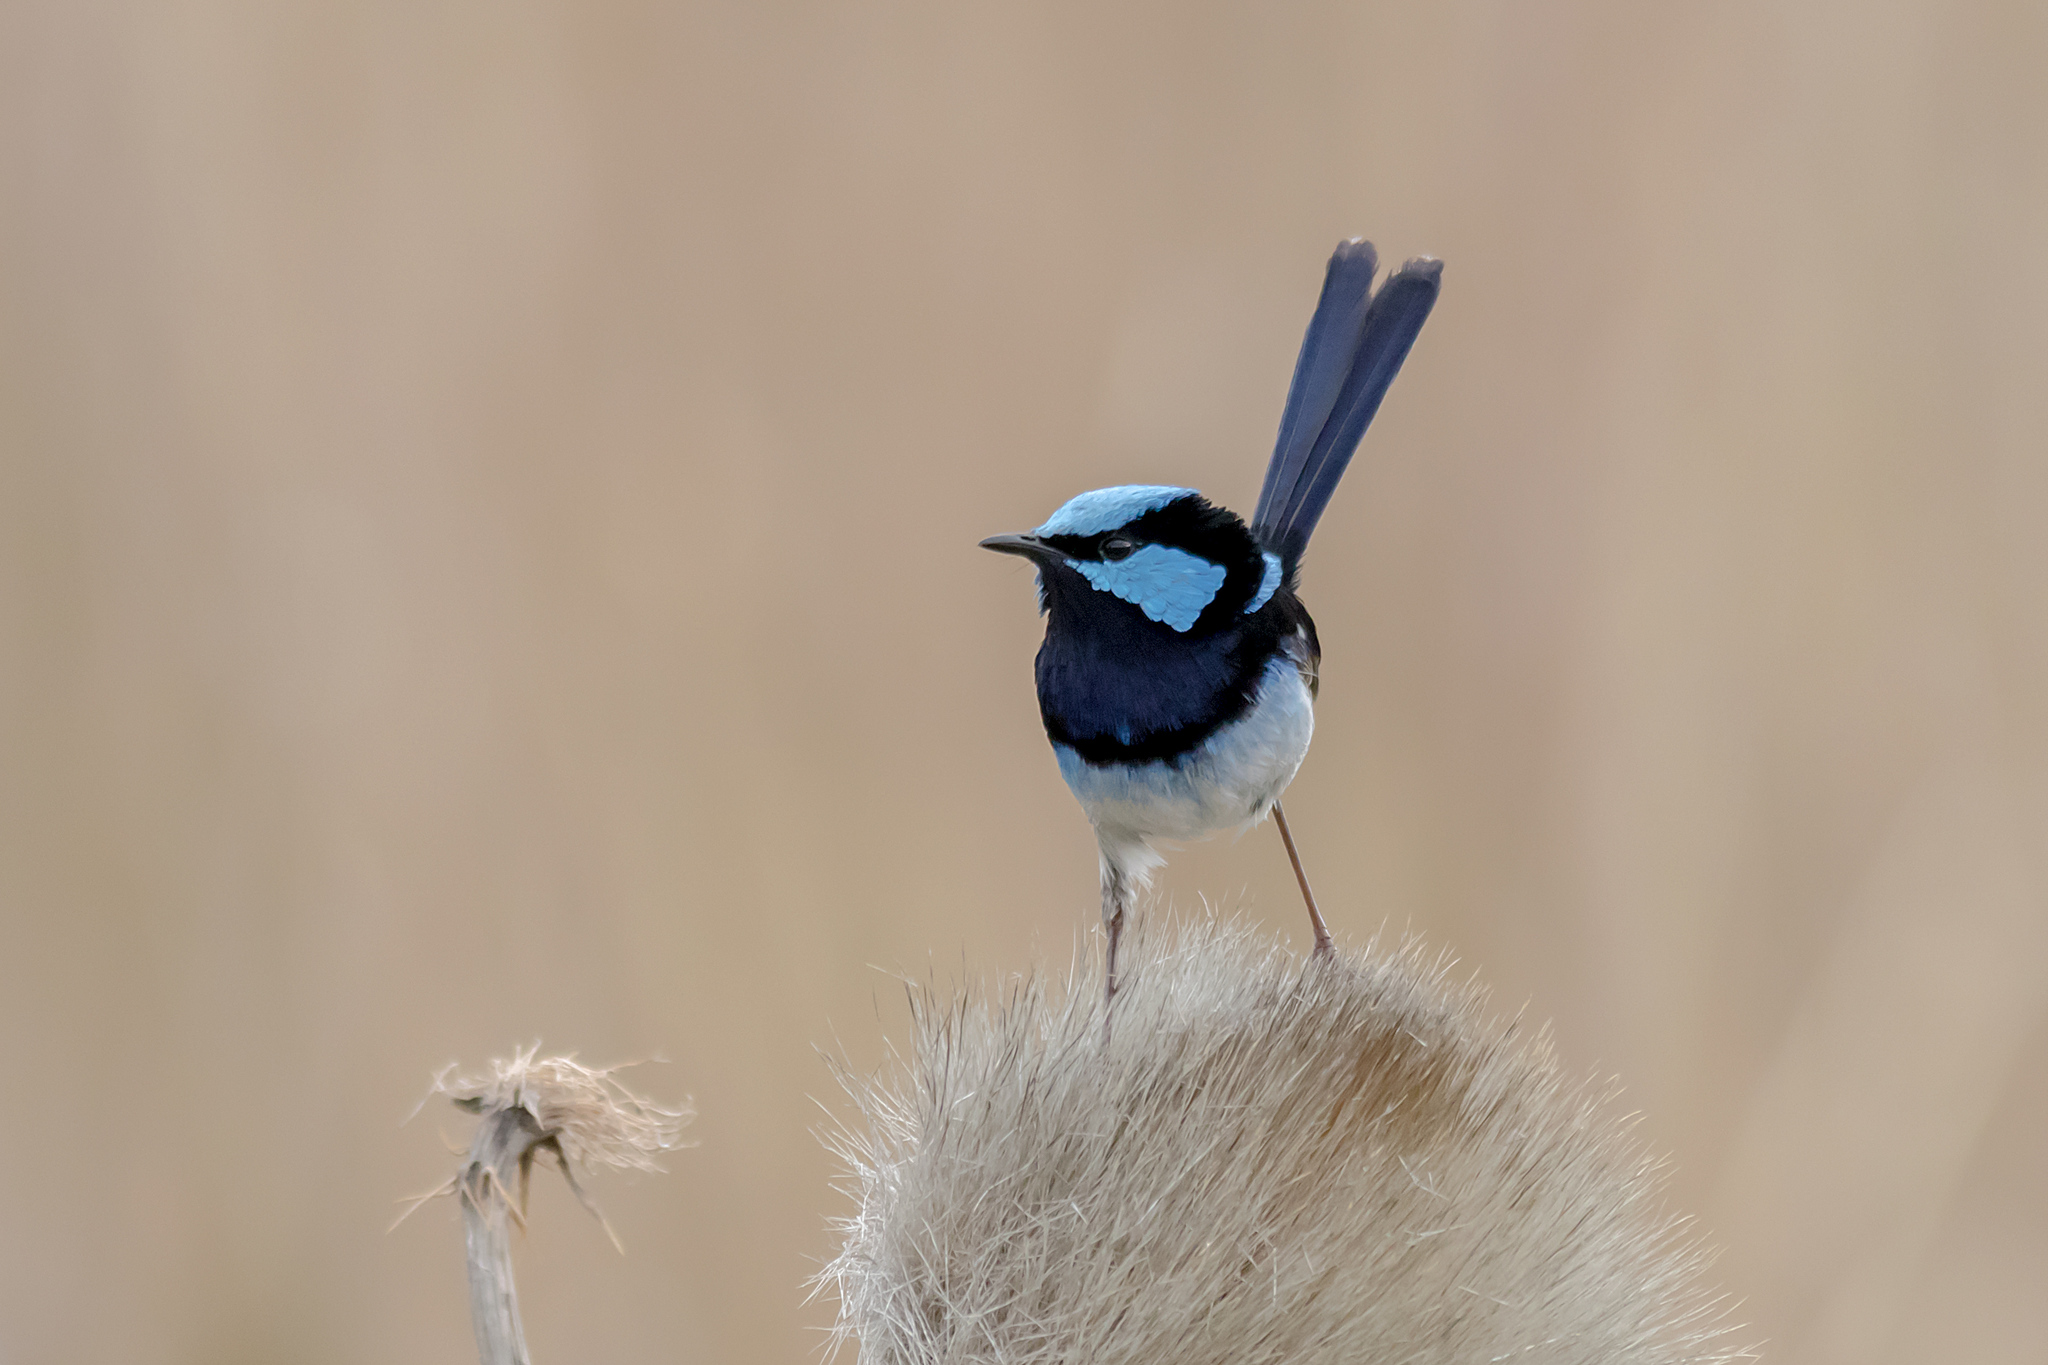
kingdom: Animalia
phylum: Chordata
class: Aves
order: Passeriformes
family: Maluridae
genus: Malurus
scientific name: Malurus cyaneus
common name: Superb fairywren
